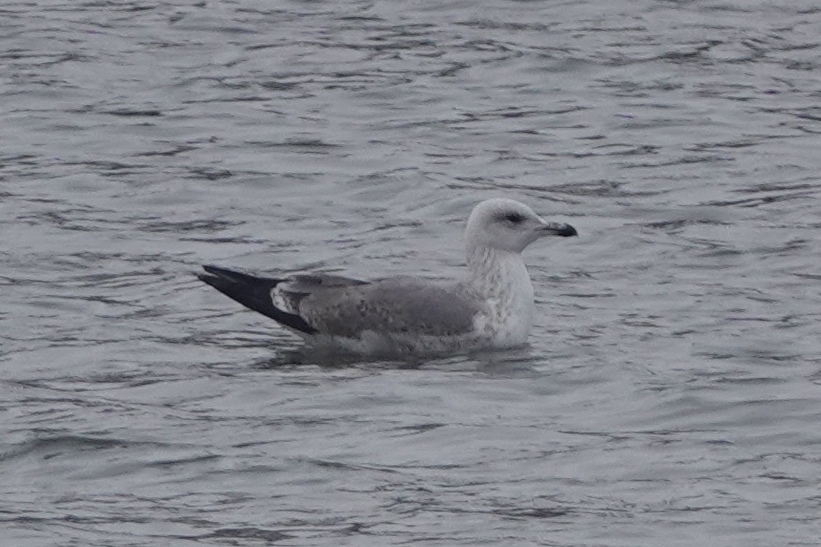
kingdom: Animalia
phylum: Chordata
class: Aves
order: Charadriiformes
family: Laridae
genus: Larus
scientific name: Larus argentatus
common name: Herring gull
